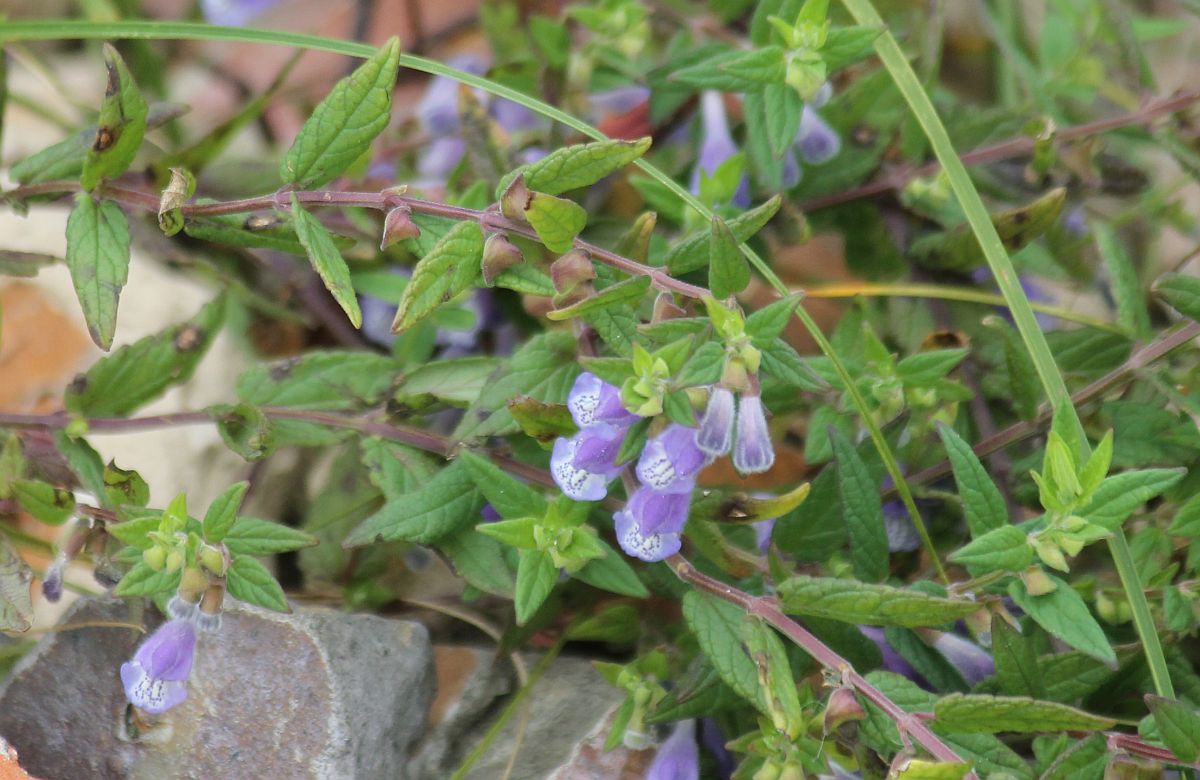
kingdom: Plantae
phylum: Tracheophyta
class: Magnoliopsida
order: Lamiales
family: Lamiaceae
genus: Scutellaria
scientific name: Scutellaria galericulata
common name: Skullcap
